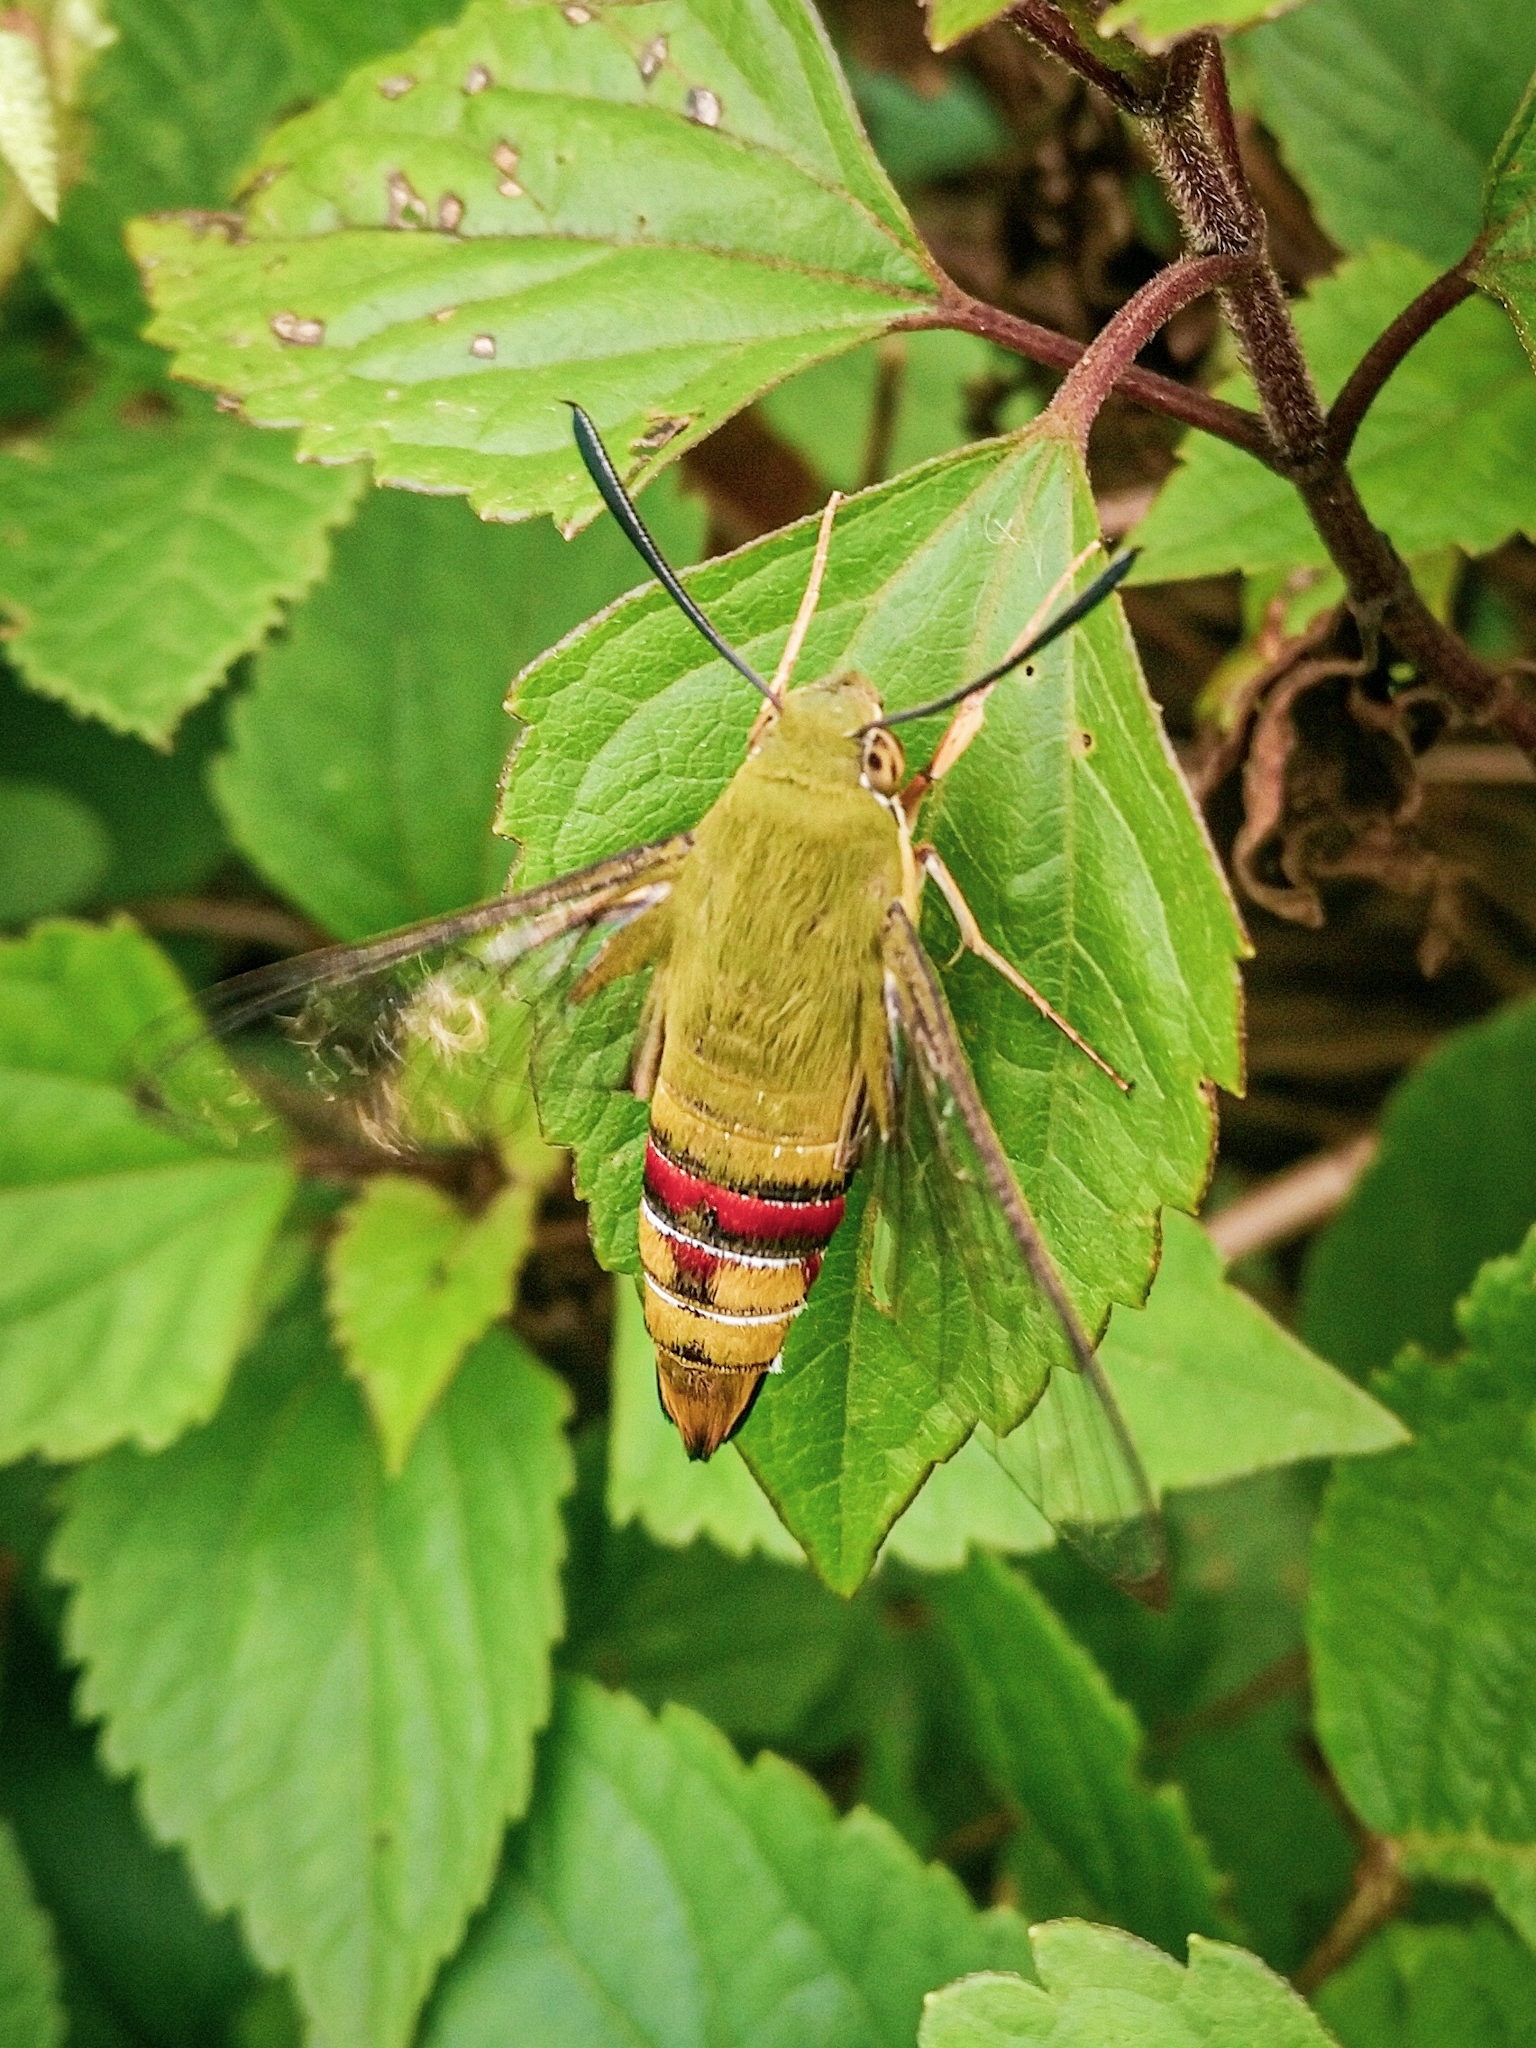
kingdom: Animalia
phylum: Arthropoda
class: Insecta
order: Lepidoptera
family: Sphingidae
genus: Cephonodes
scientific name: Cephonodes hylas
